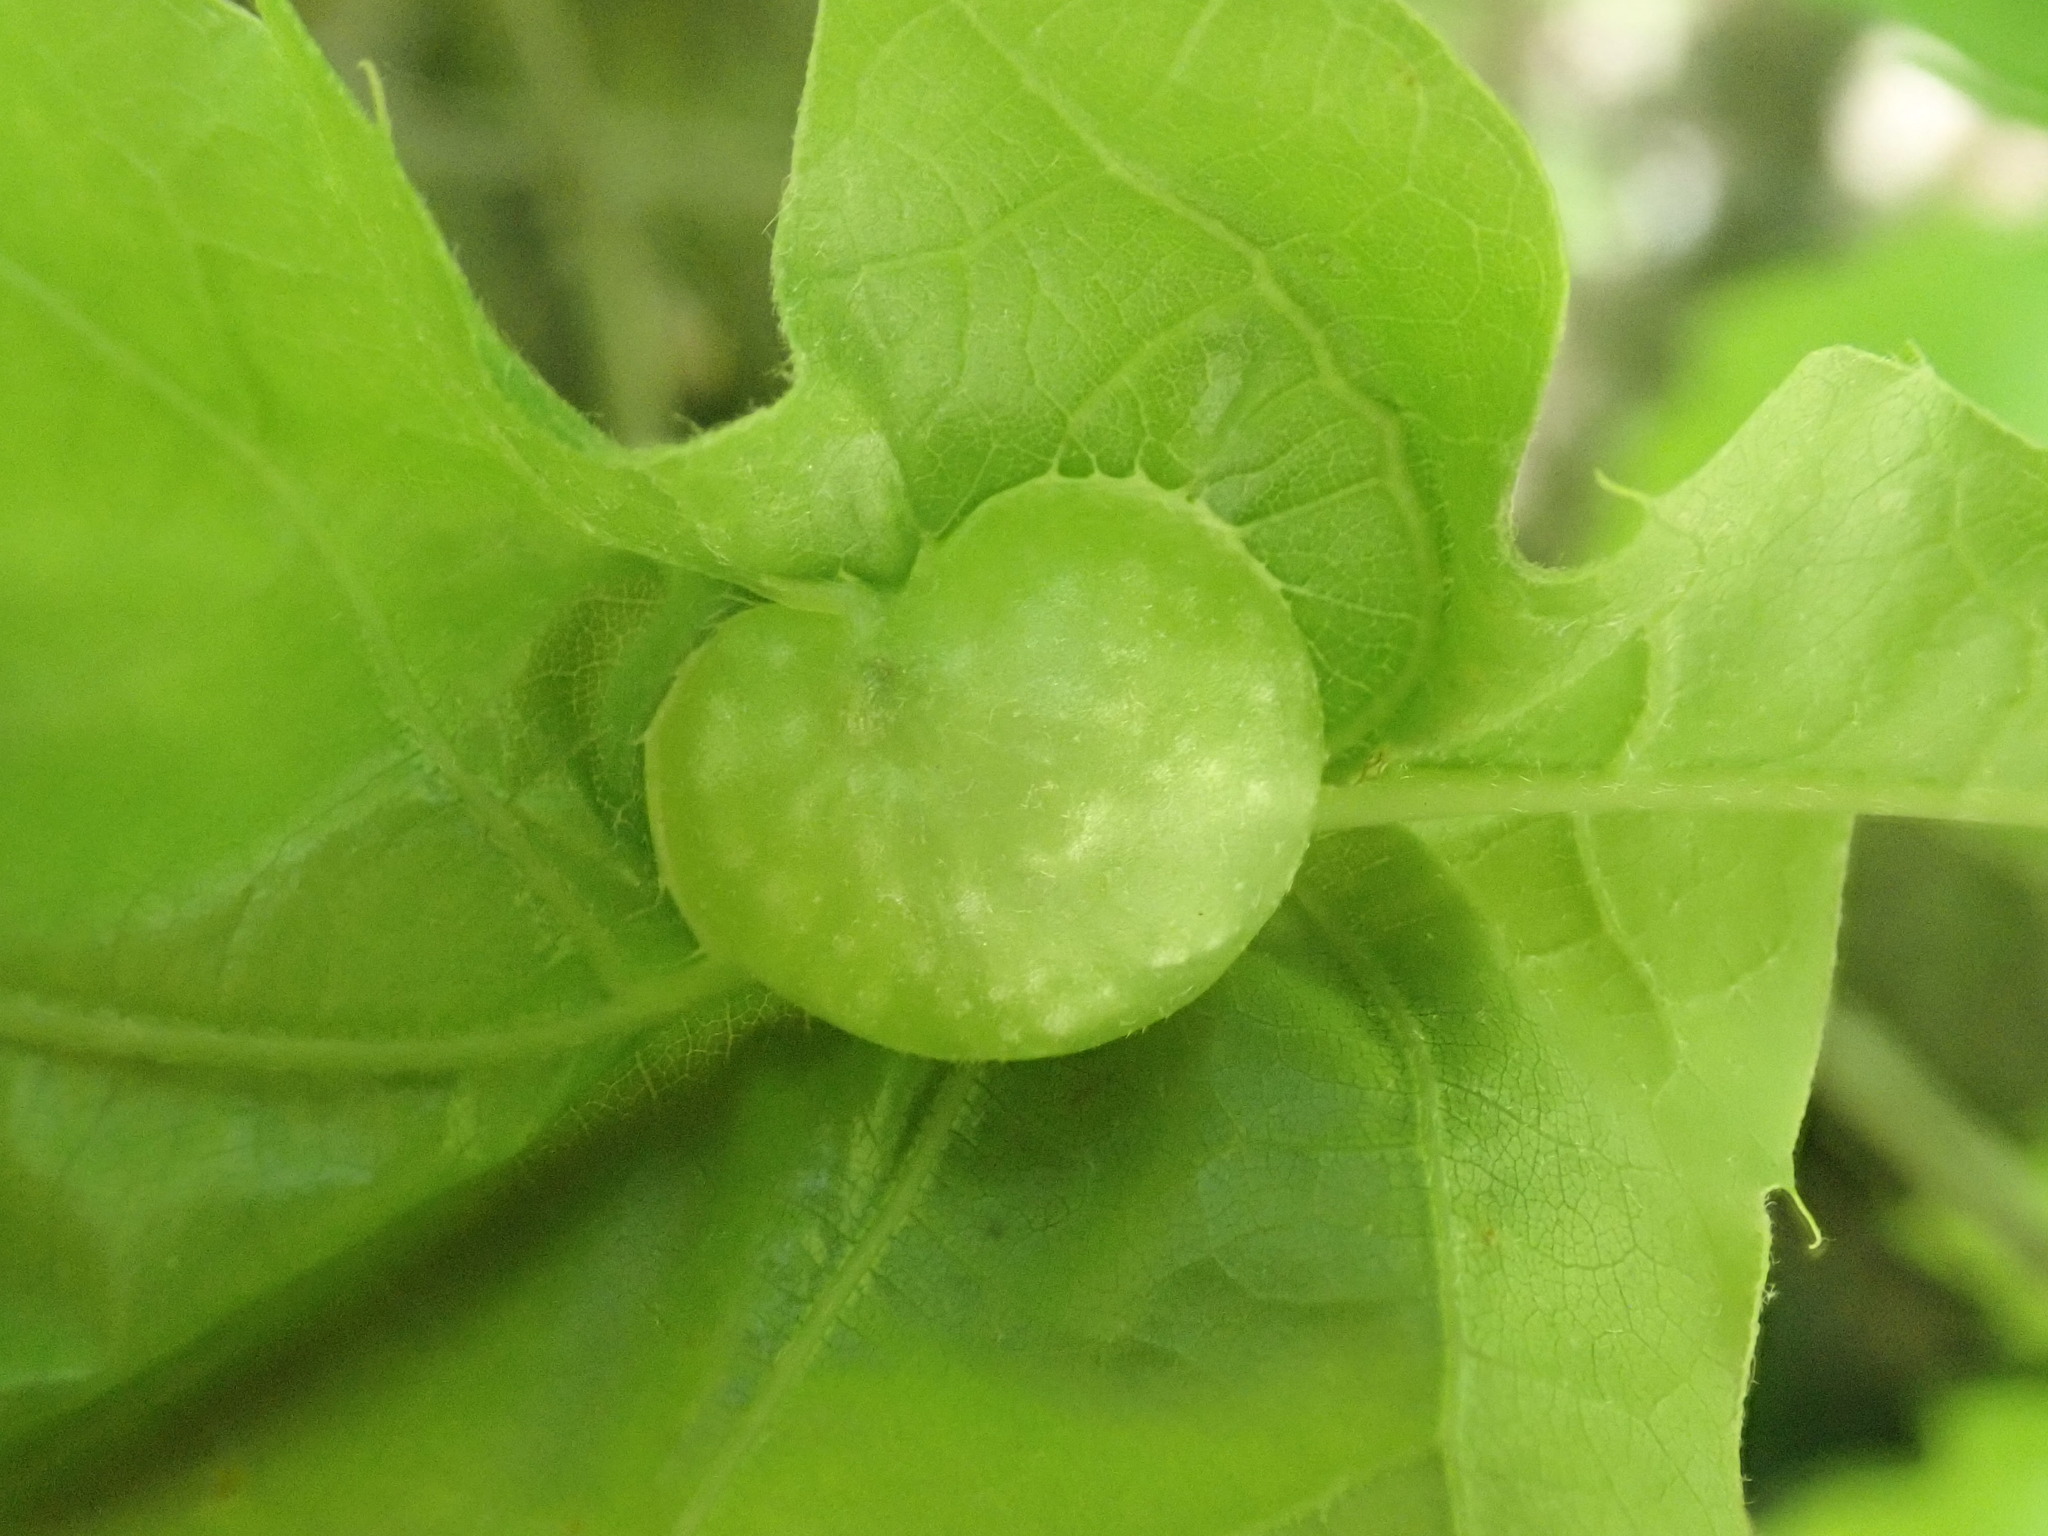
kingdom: Animalia
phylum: Arthropoda
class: Insecta
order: Hymenoptera
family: Cynipidae
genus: Dryocosmus
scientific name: Dryocosmus quercuspalustris
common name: Succulent oak gall wasp
